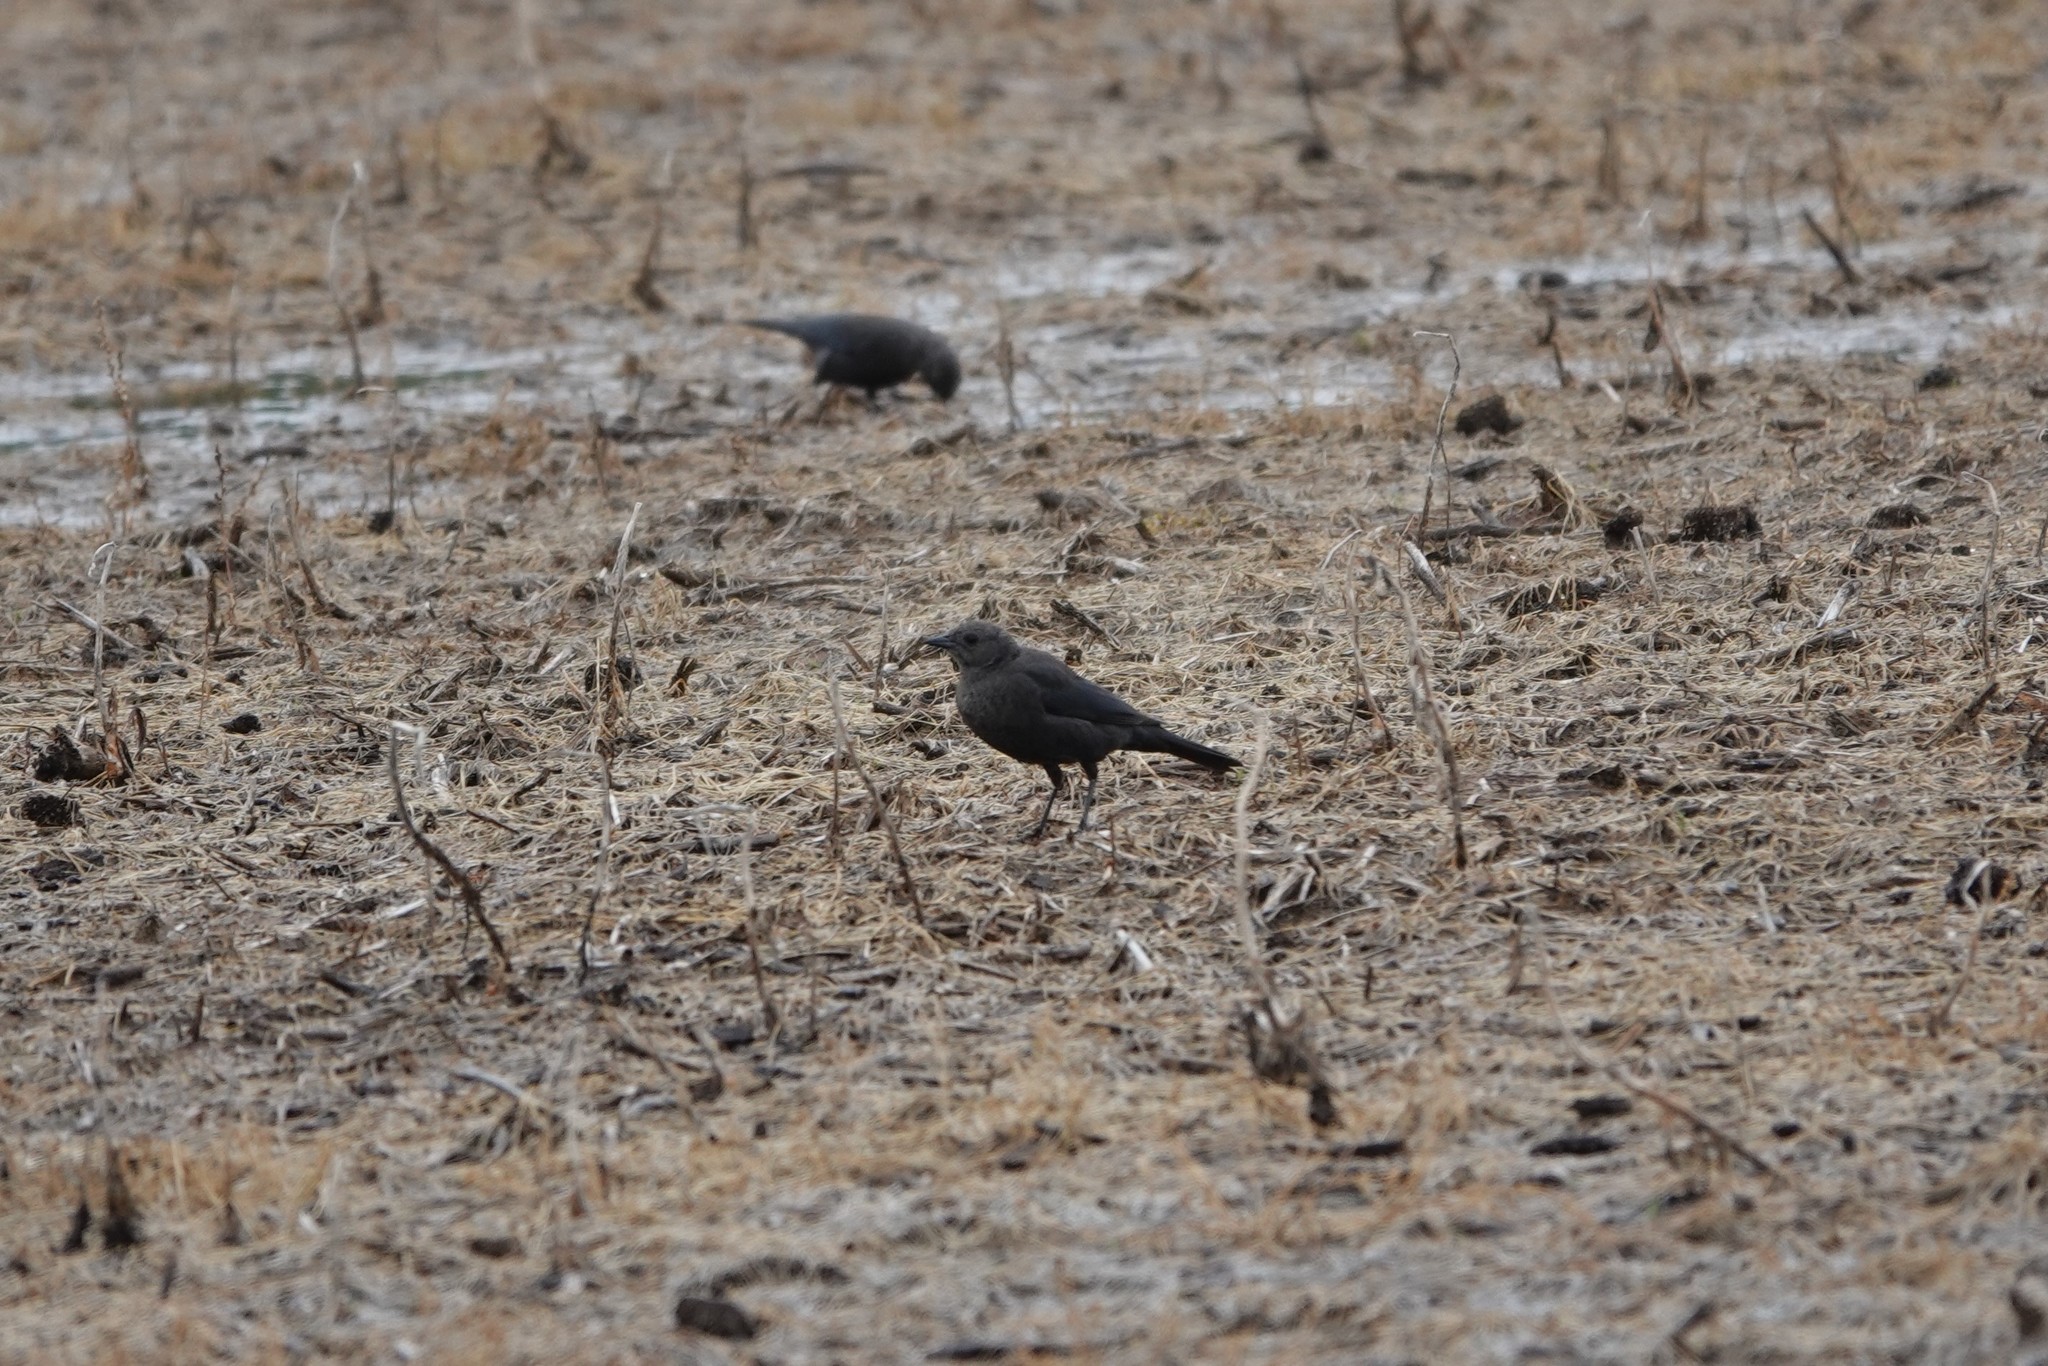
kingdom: Animalia
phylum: Chordata
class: Aves
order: Passeriformes
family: Icteridae
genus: Euphagus
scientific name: Euphagus cyanocephalus
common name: Brewer's blackbird
